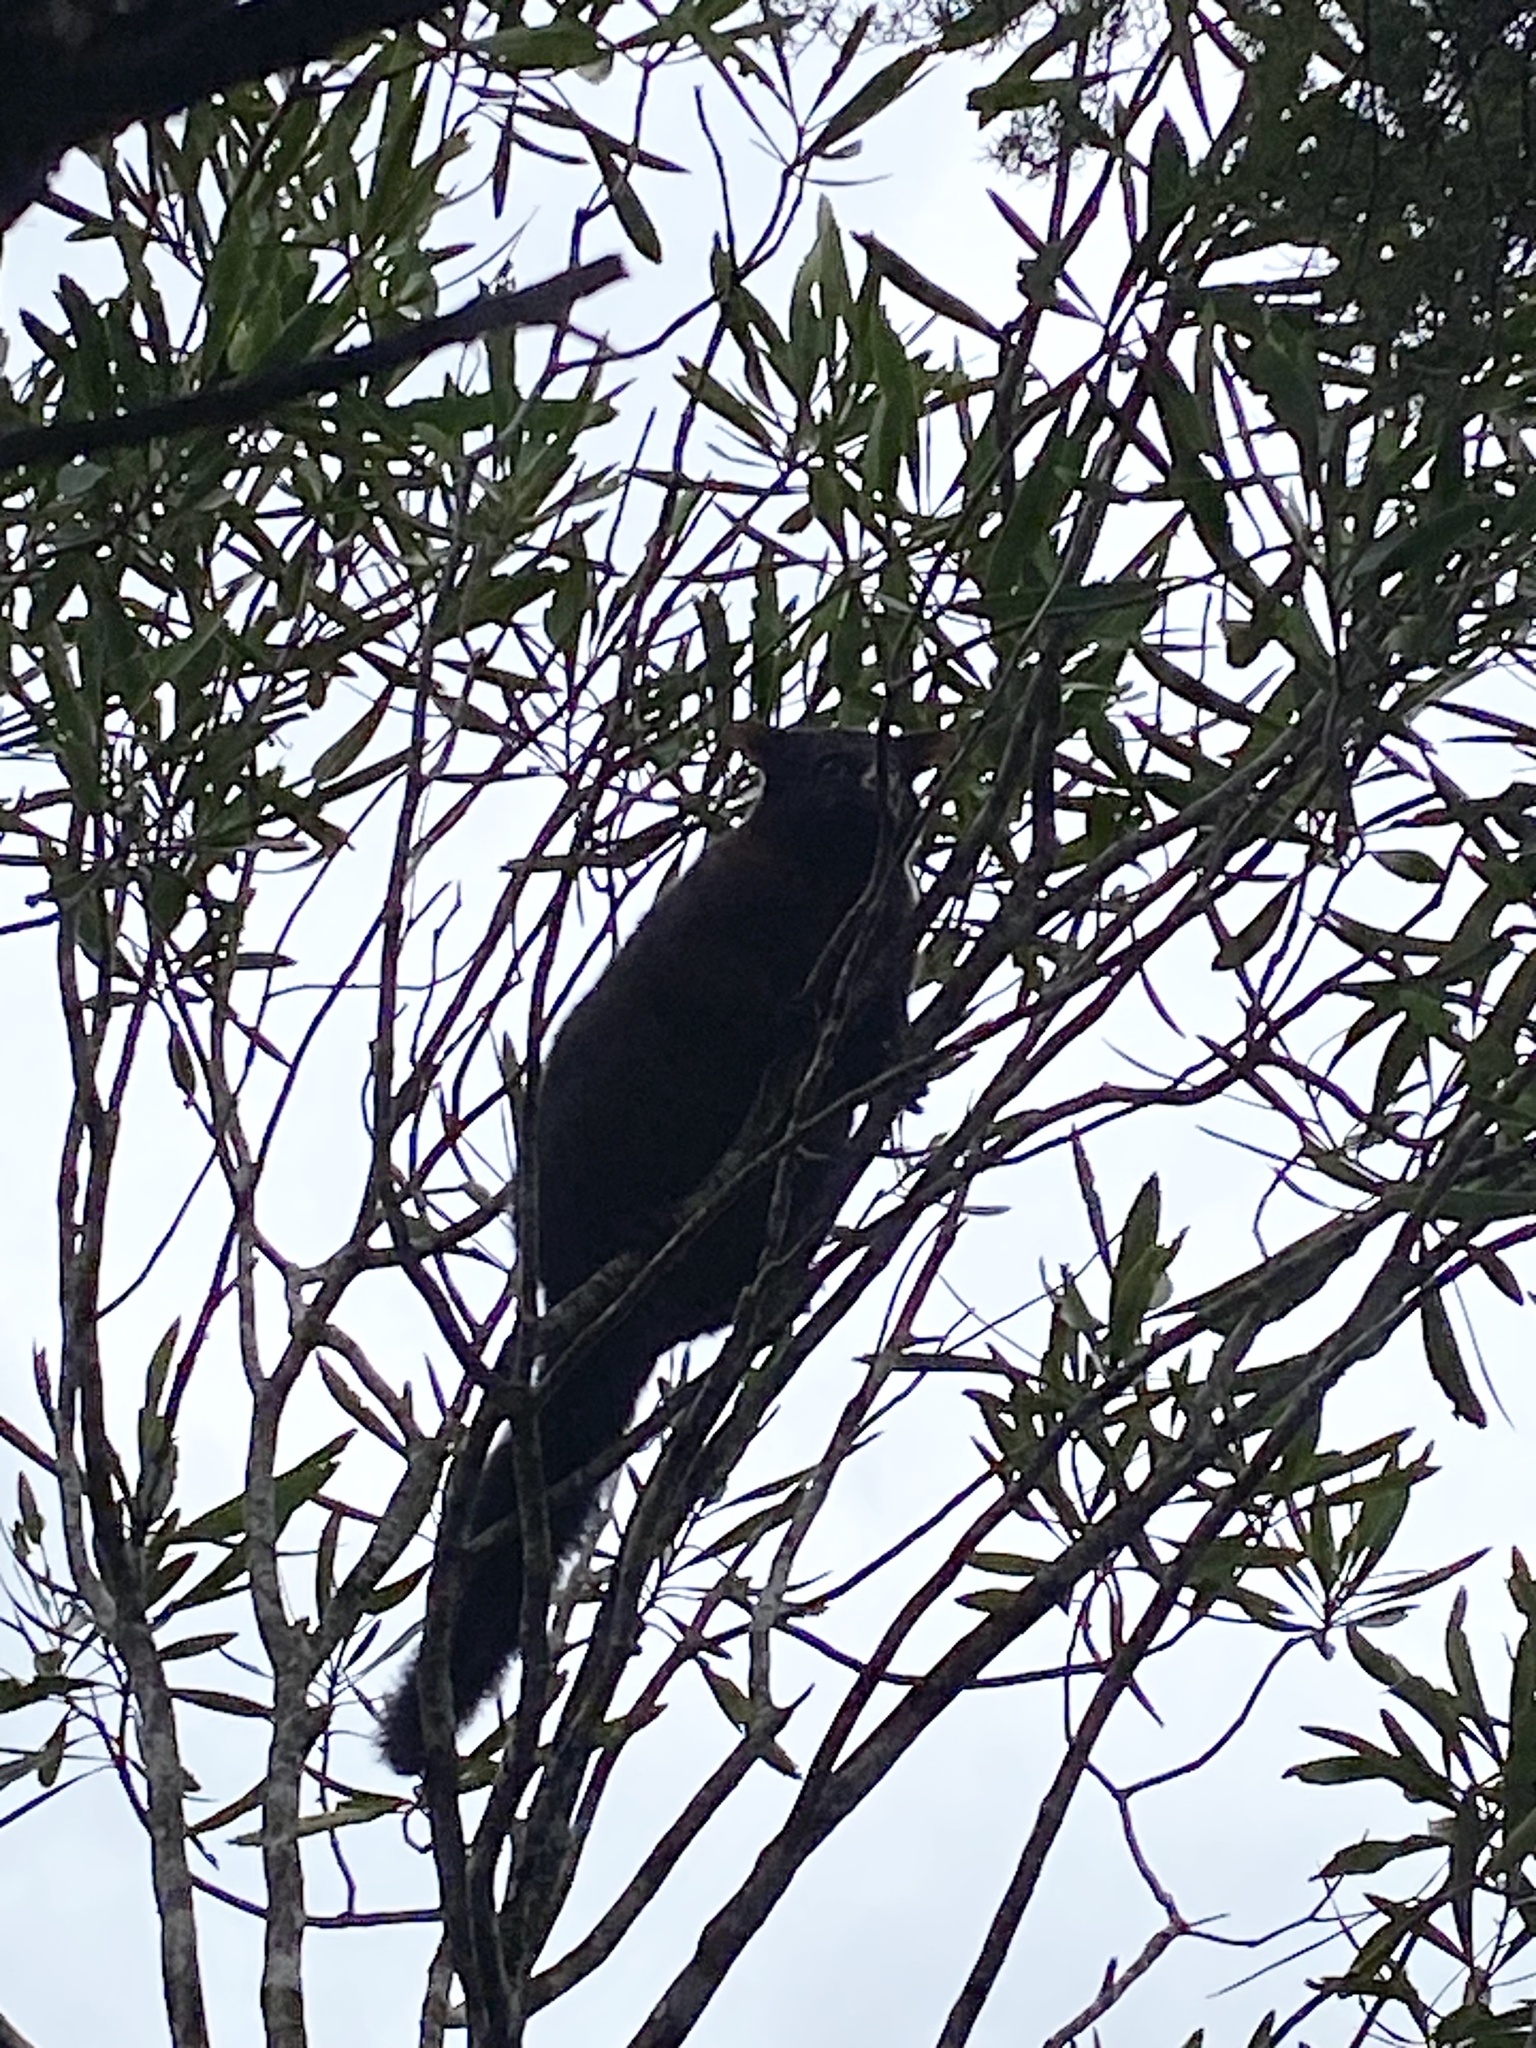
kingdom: Animalia
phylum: Chordata
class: Mammalia
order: Diprotodontia
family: Phalangeridae
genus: Trichosurus
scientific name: Trichosurus vulpecula
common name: Common brushtail
